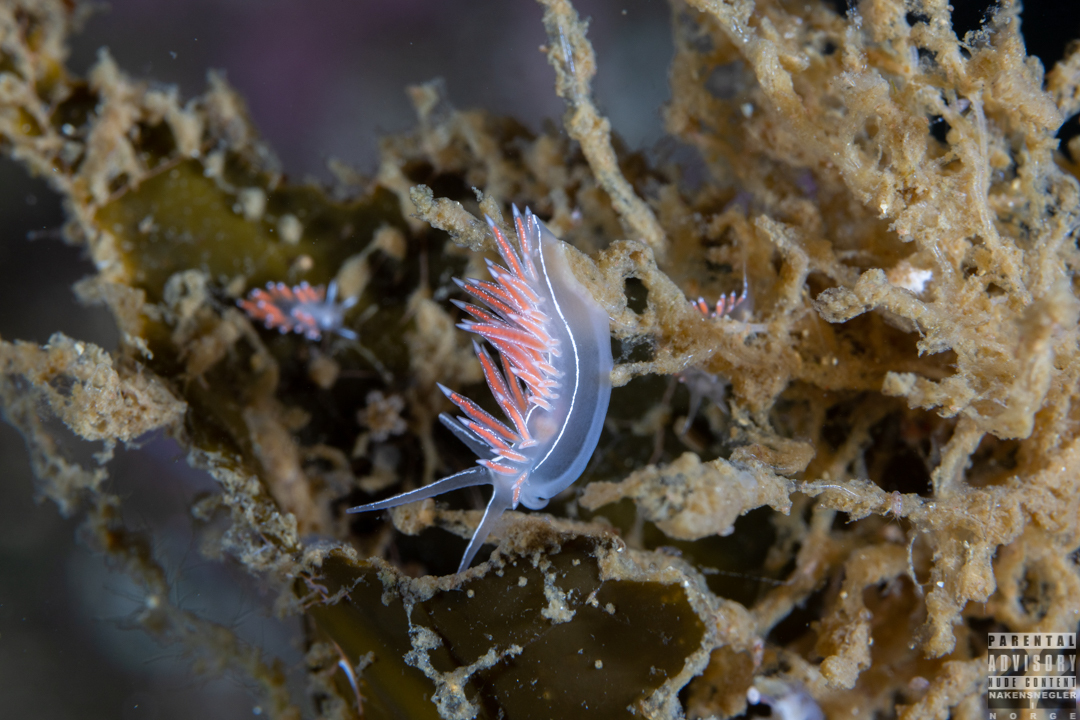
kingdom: Animalia
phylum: Mollusca
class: Gastropoda
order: Nudibranchia
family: Coryphellidae
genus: Coryphella
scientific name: Coryphella chriskaugei
